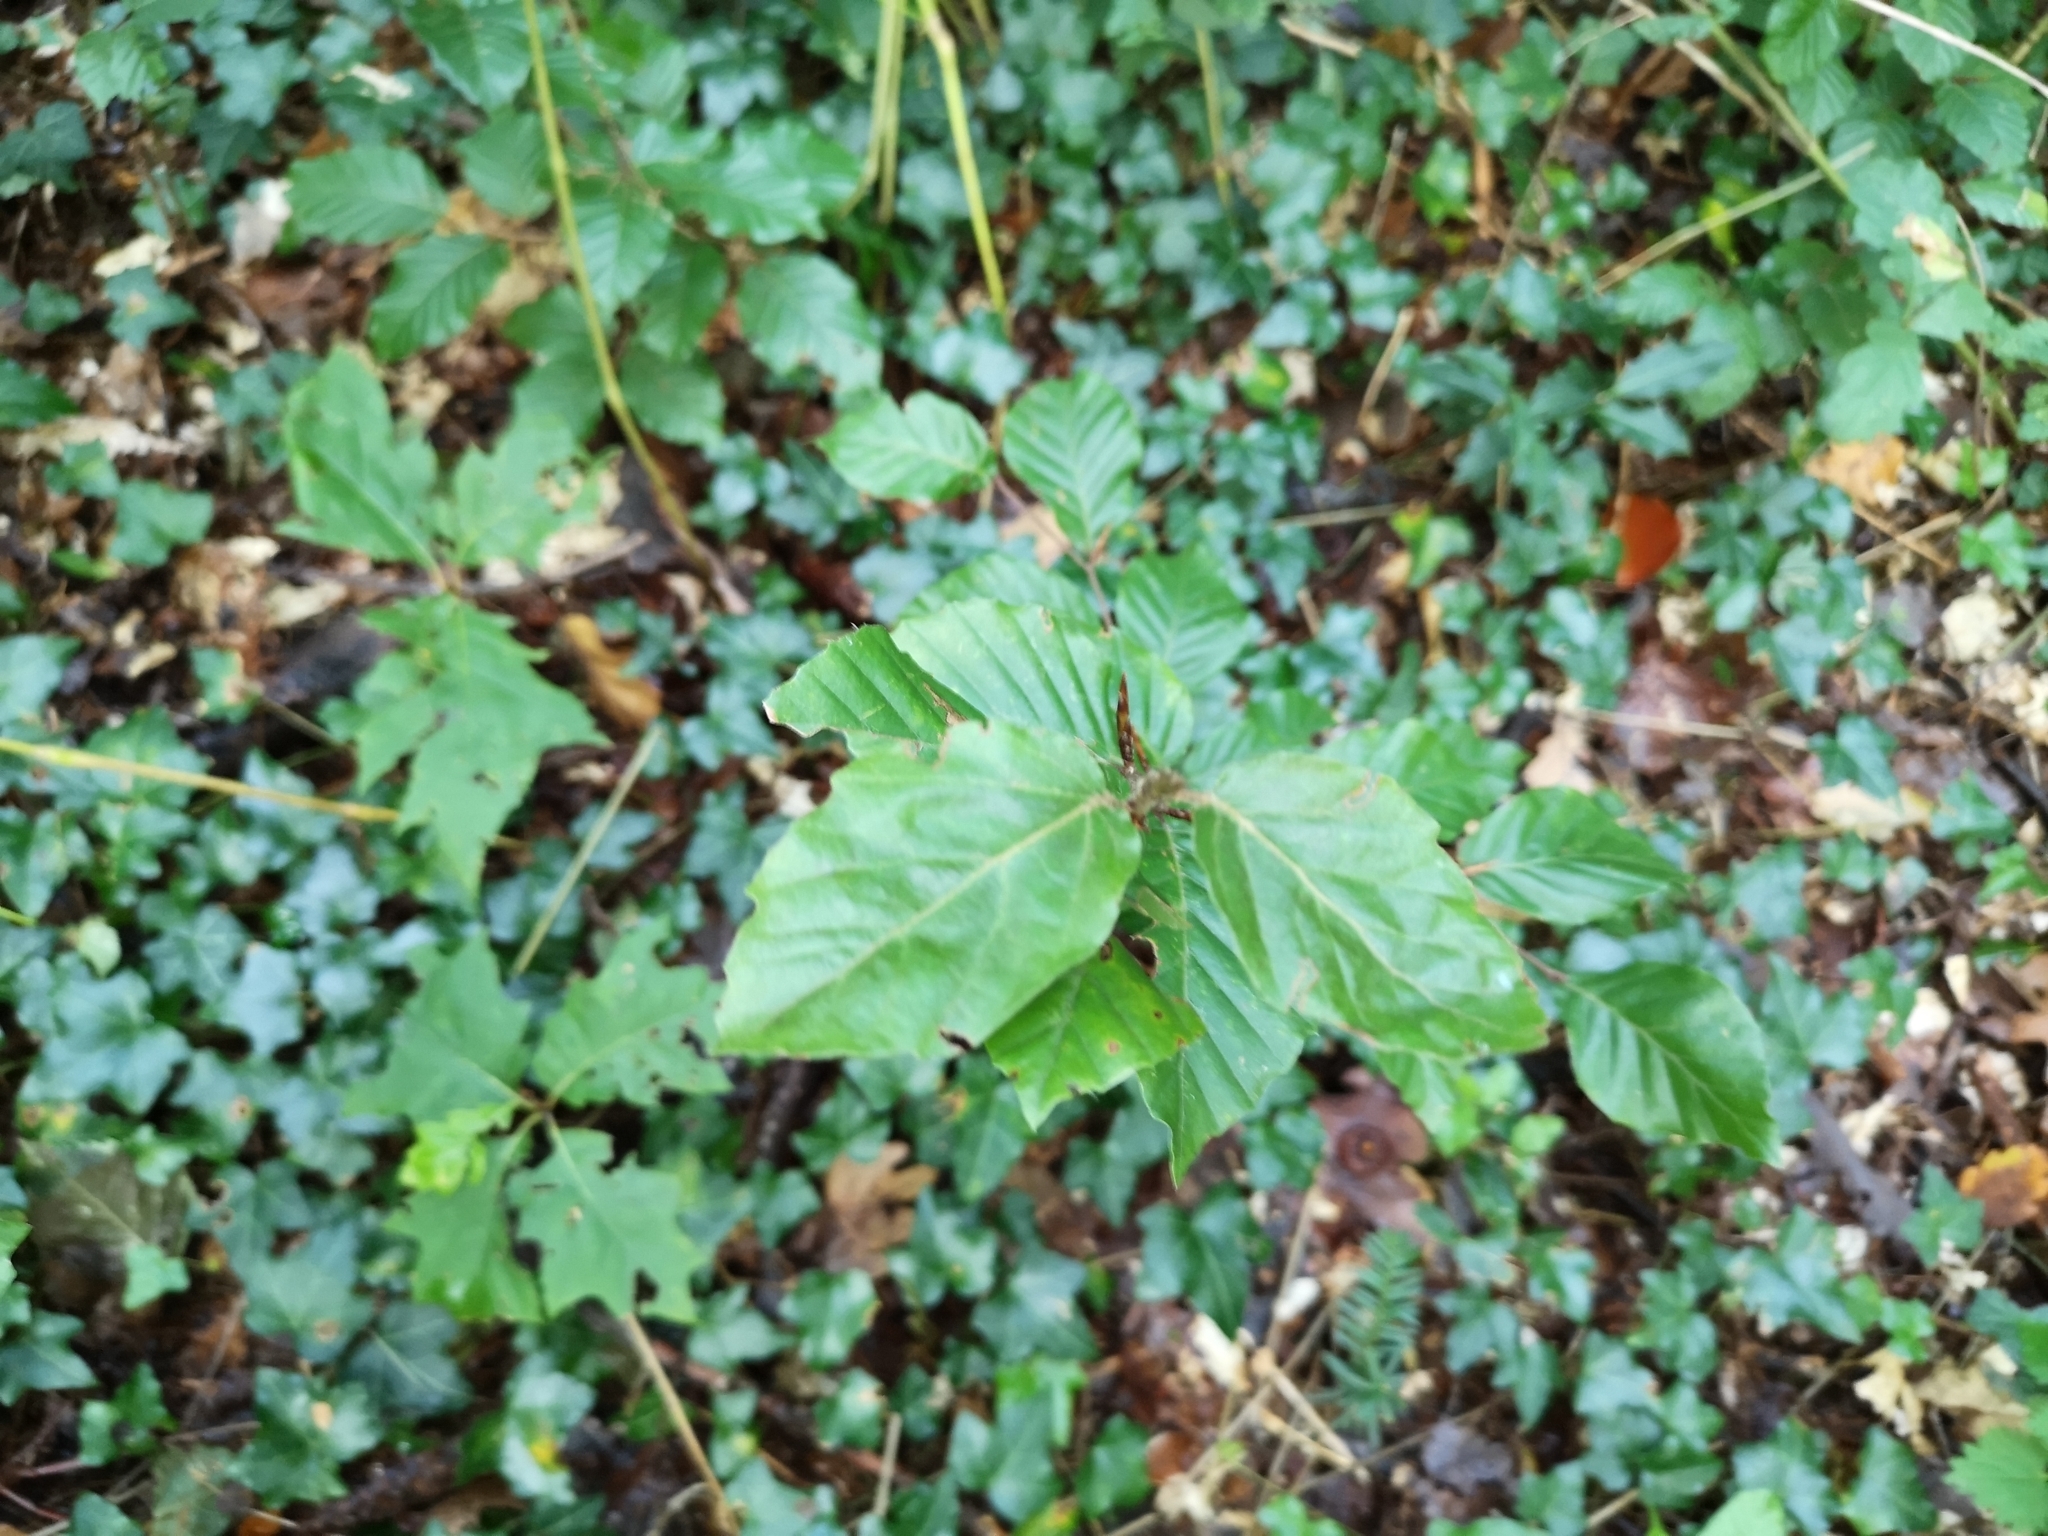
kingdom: Plantae
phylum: Tracheophyta
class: Magnoliopsida
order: Fagales
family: Fagaceae
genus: Fagus
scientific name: Fagus sylvatica
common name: Beech
